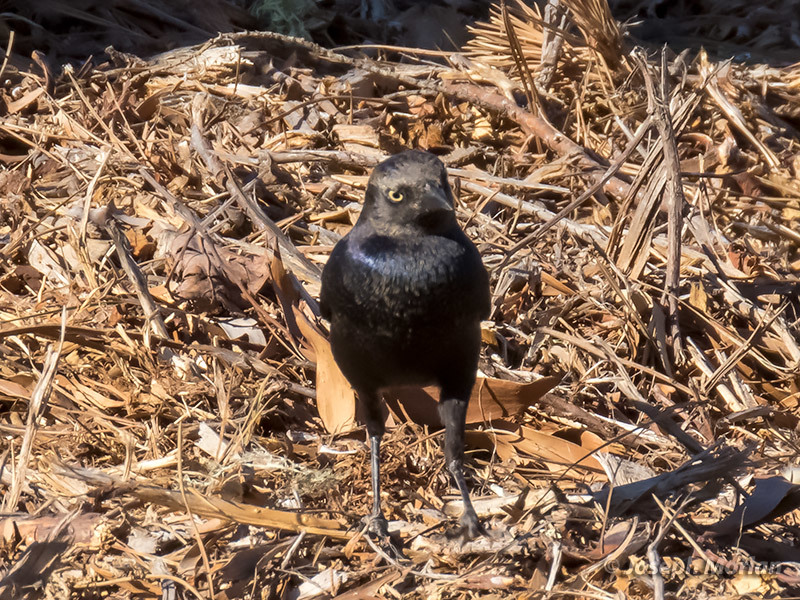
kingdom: Animalia
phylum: Chordata
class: Aves
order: Passeriformes
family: Icteridae
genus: Euphagus
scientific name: Euphagus cyanocephalus
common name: Brewer's blackbird
